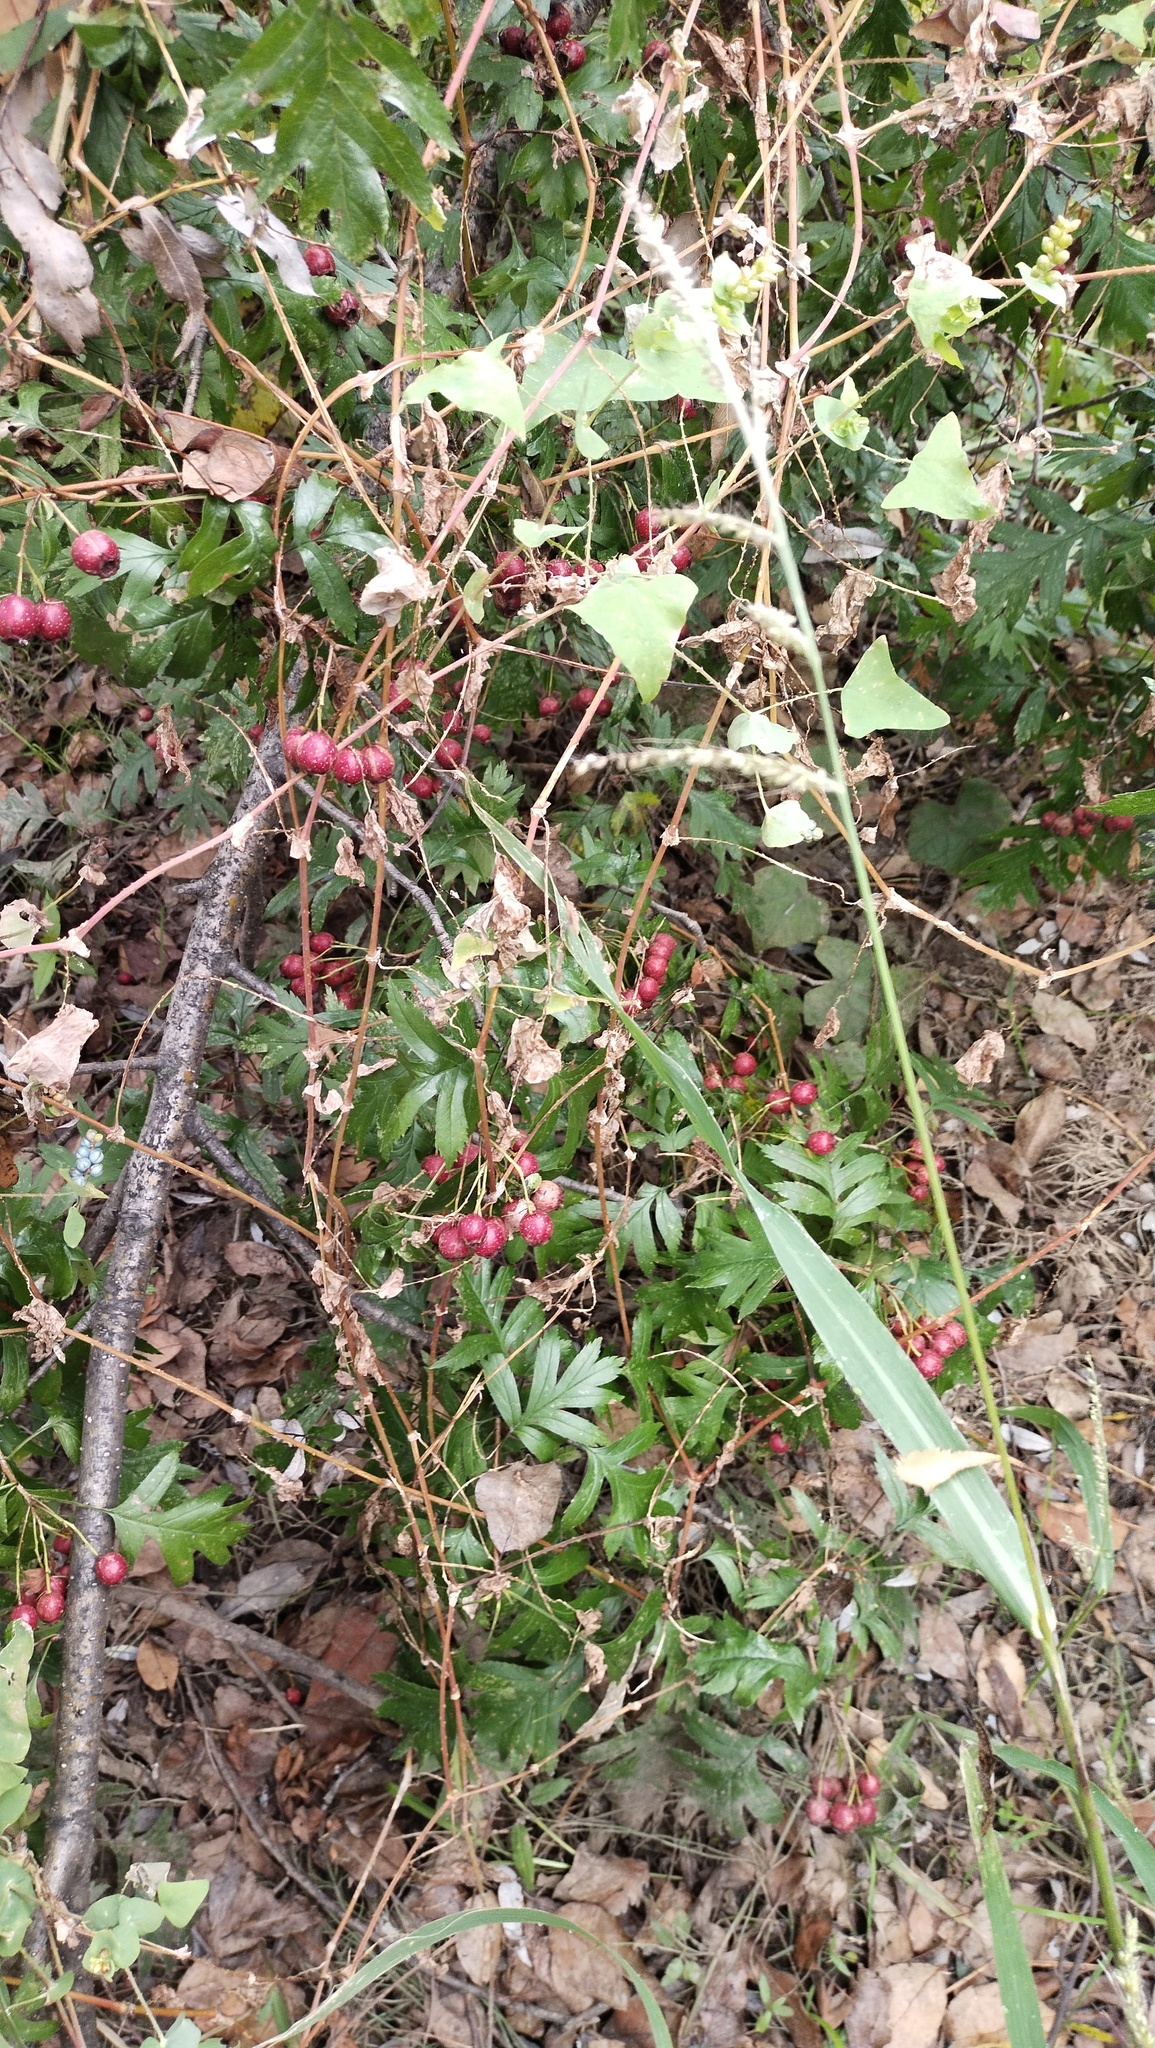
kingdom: Plantae
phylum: Tracheophyta
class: Magnoliopsida
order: Rosales
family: Rosaceae
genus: Crataegus
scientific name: Crataegus pinnatifida
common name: Chinese haw
